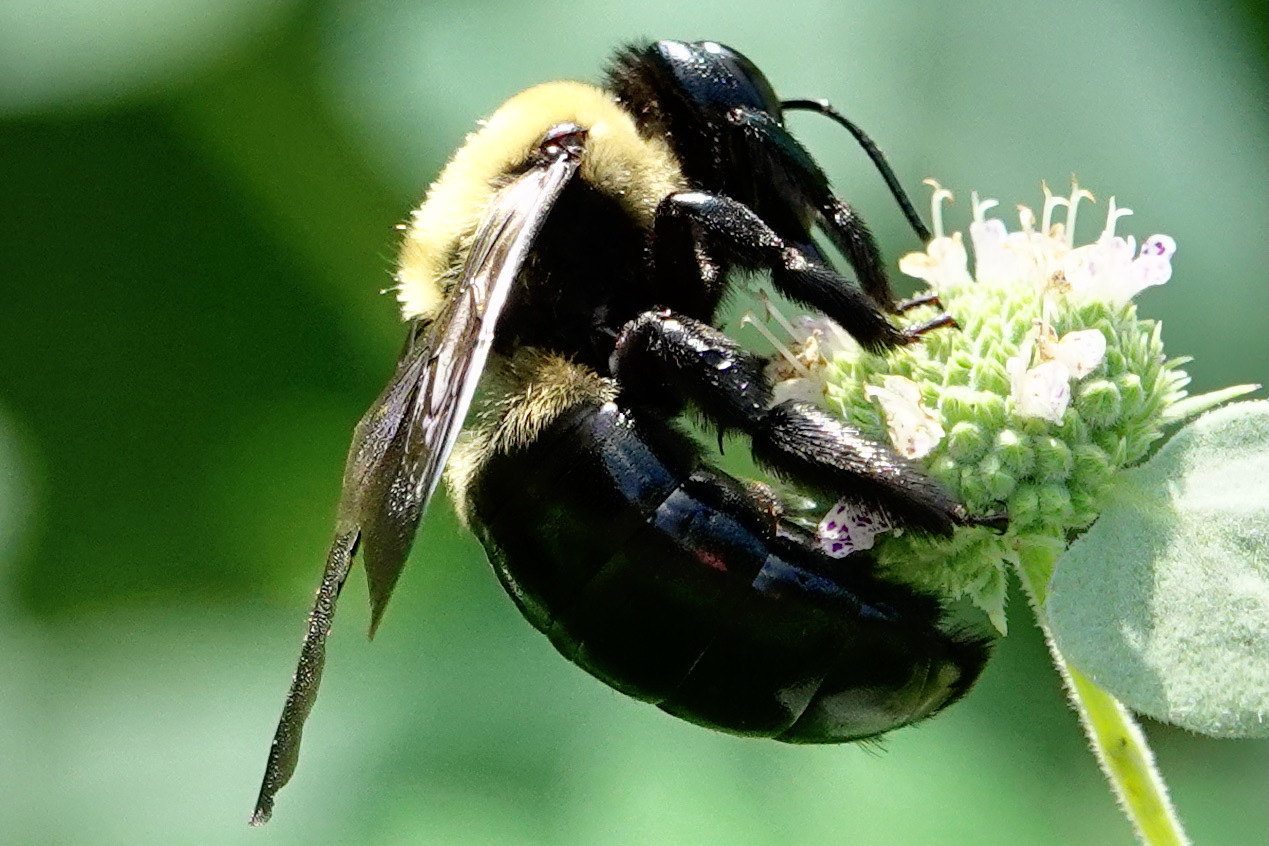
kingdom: Animalia
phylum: Arthropoda
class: Insecta
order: Hymenoptera
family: Apidae
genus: Xylocopa
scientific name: Xylocopa virginica
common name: Carpenter bee
